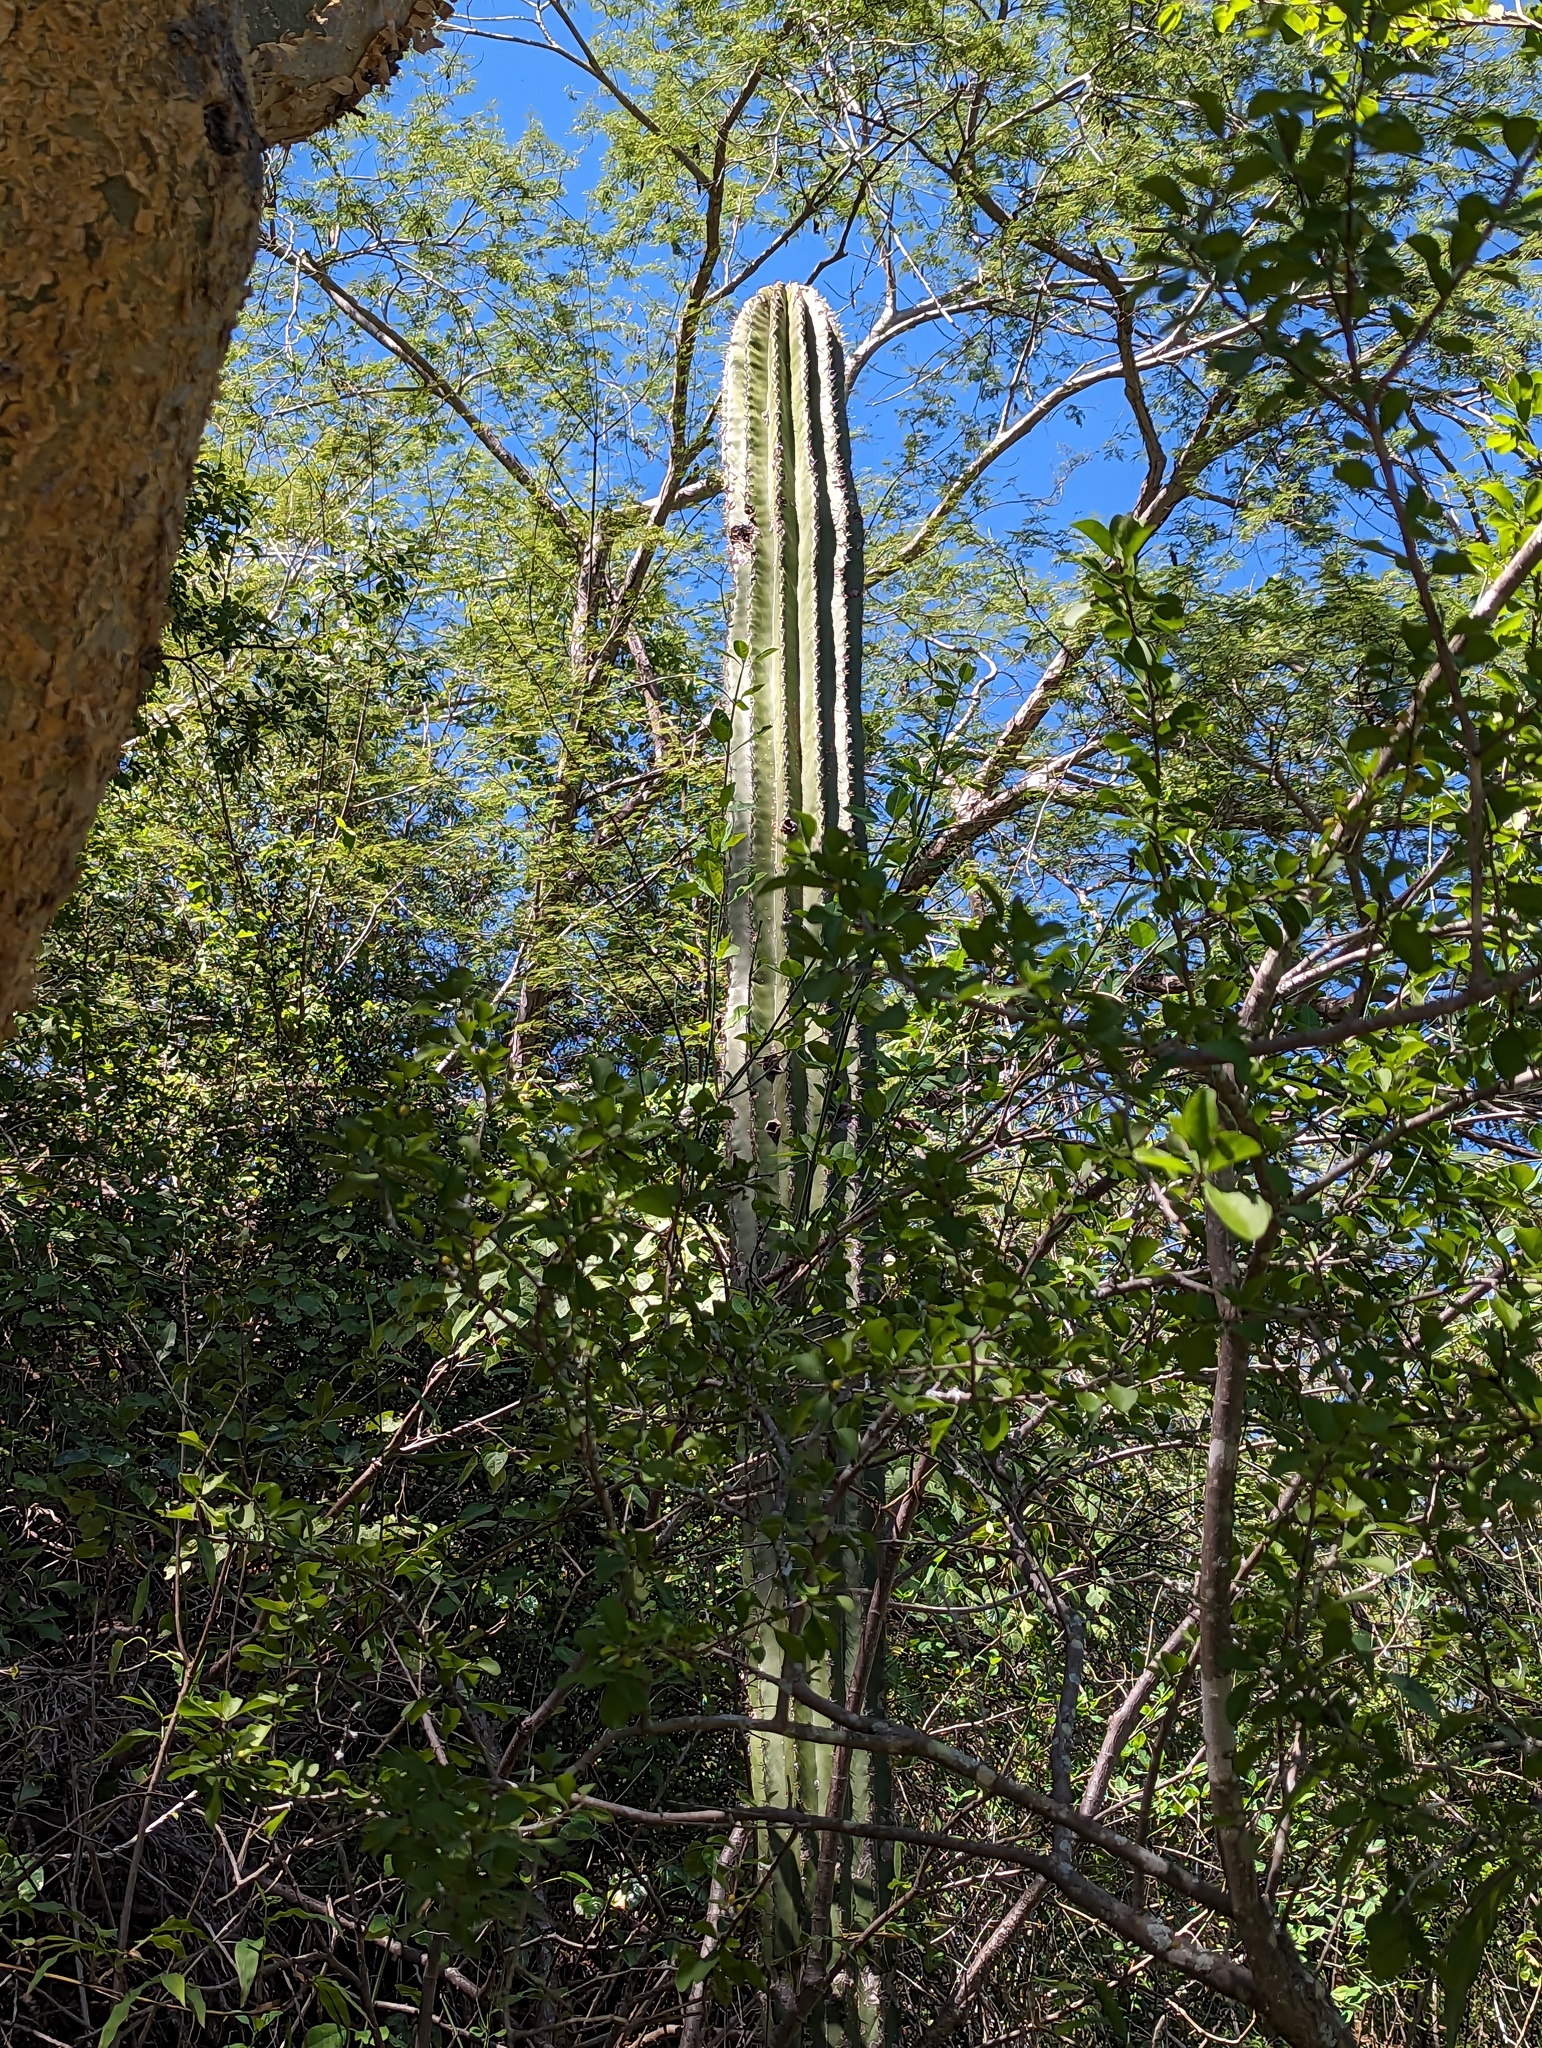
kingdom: Plantae
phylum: Tracheophyta
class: Magnoliopsida
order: Caryophyllales
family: Cactaceae
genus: Pachycereus
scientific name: Pachycereus pringlei
